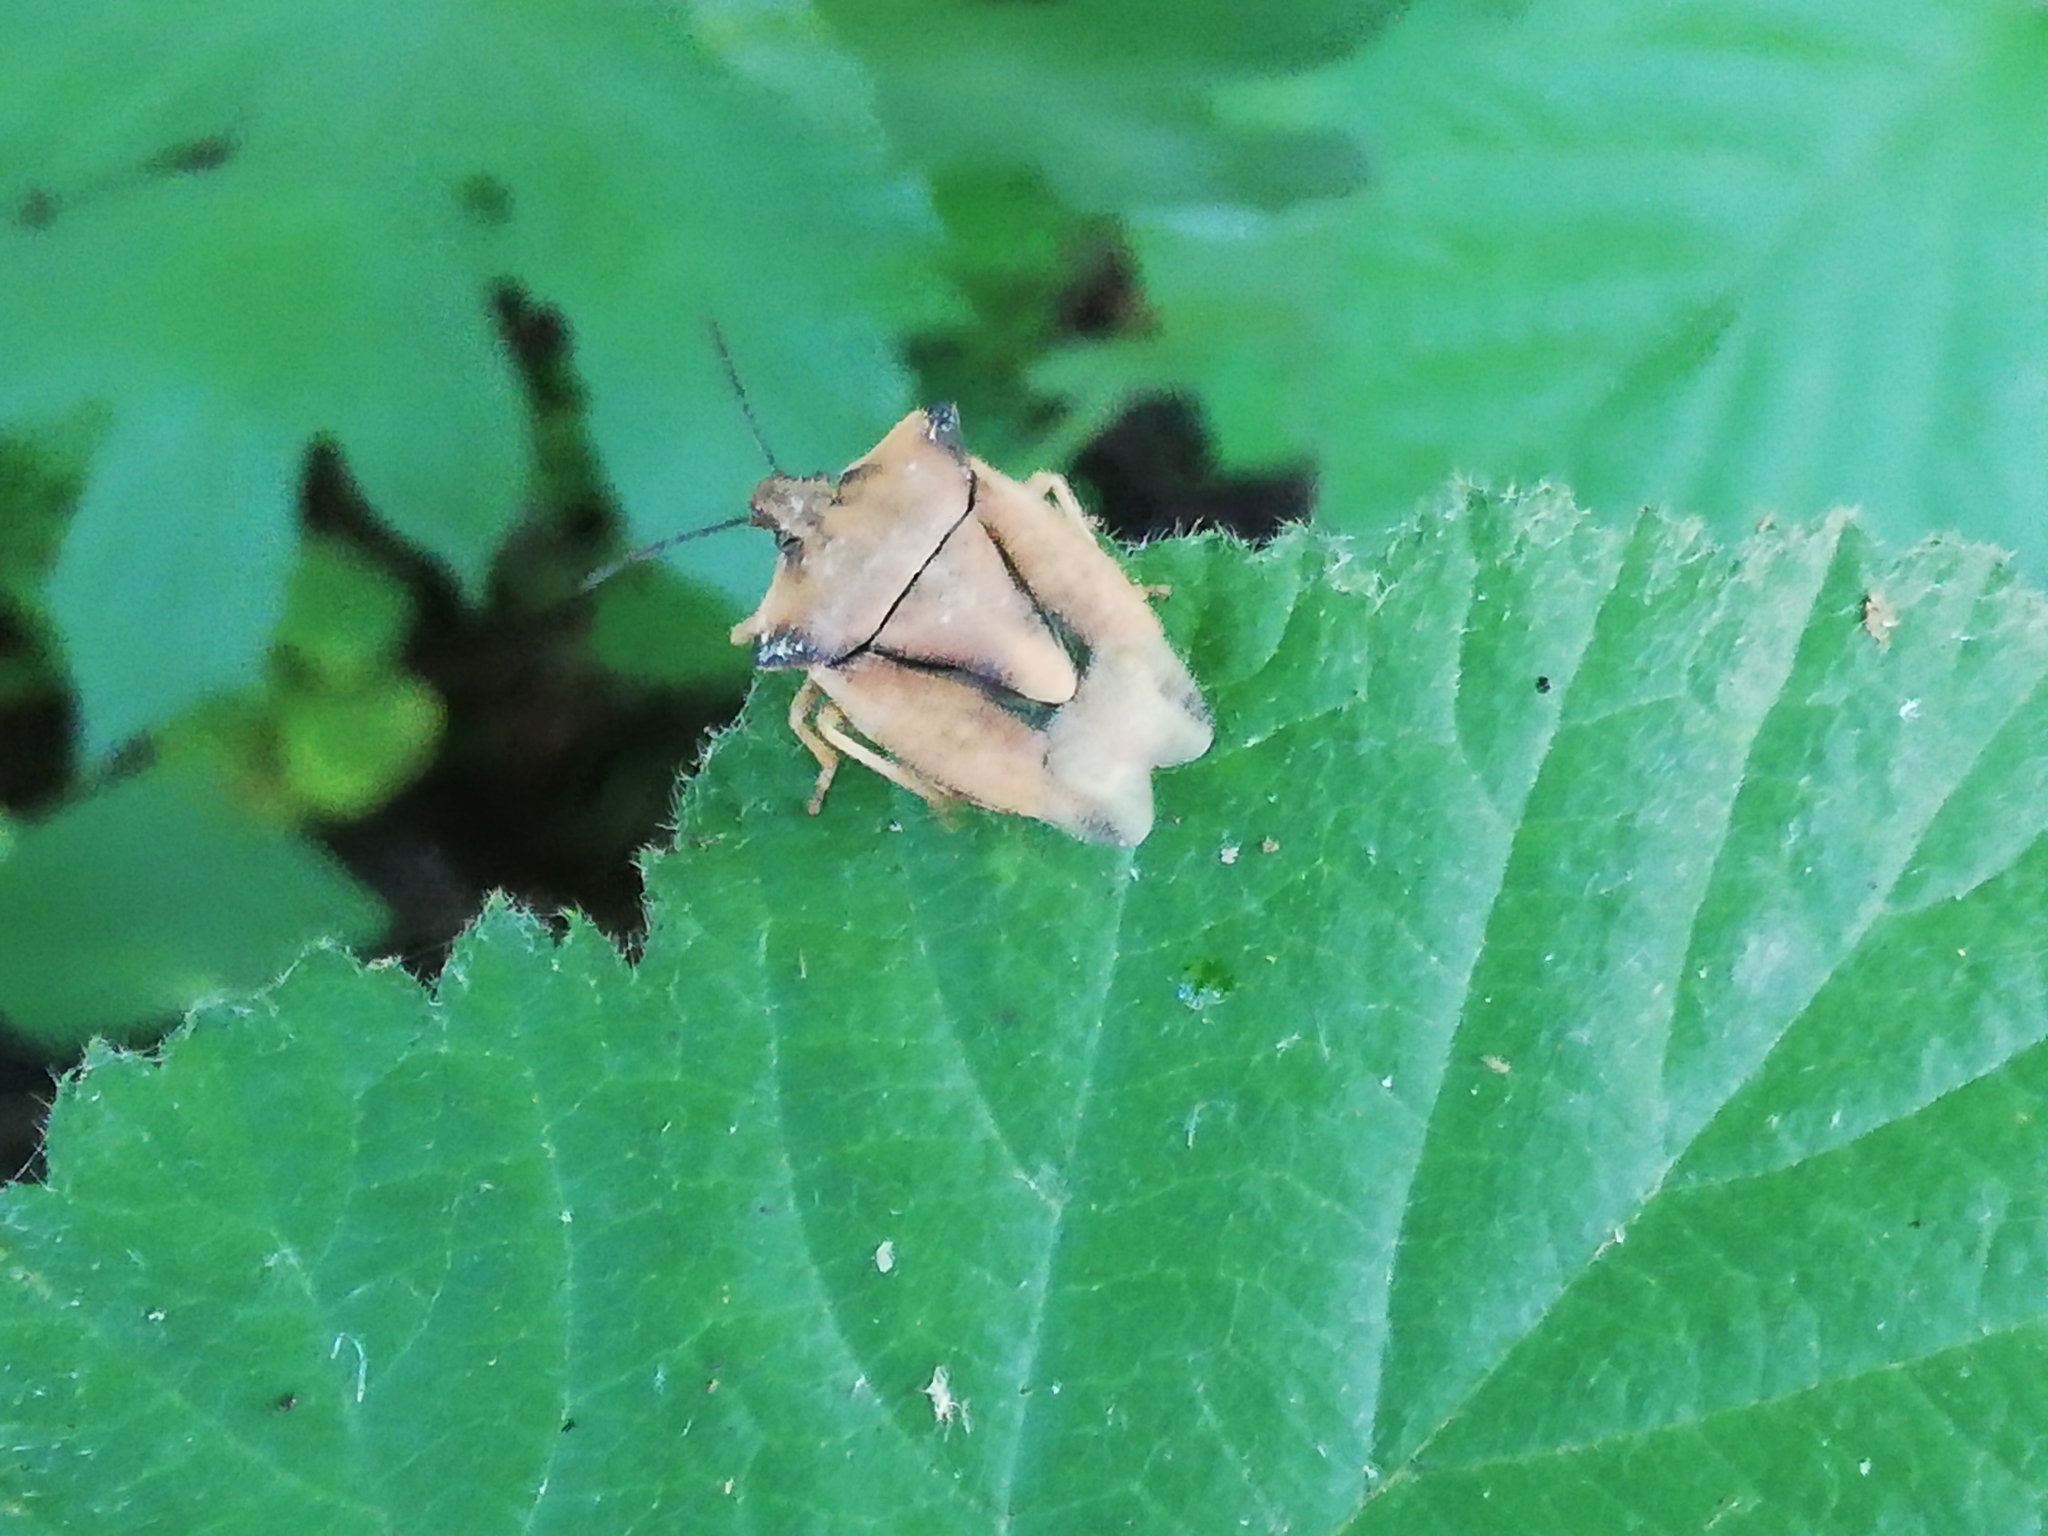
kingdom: Animalia
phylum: Arthropoda
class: Insecta
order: Hemiptera
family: Pentatomidae
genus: Carpocoris
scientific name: Carpocoris fuscispinus
